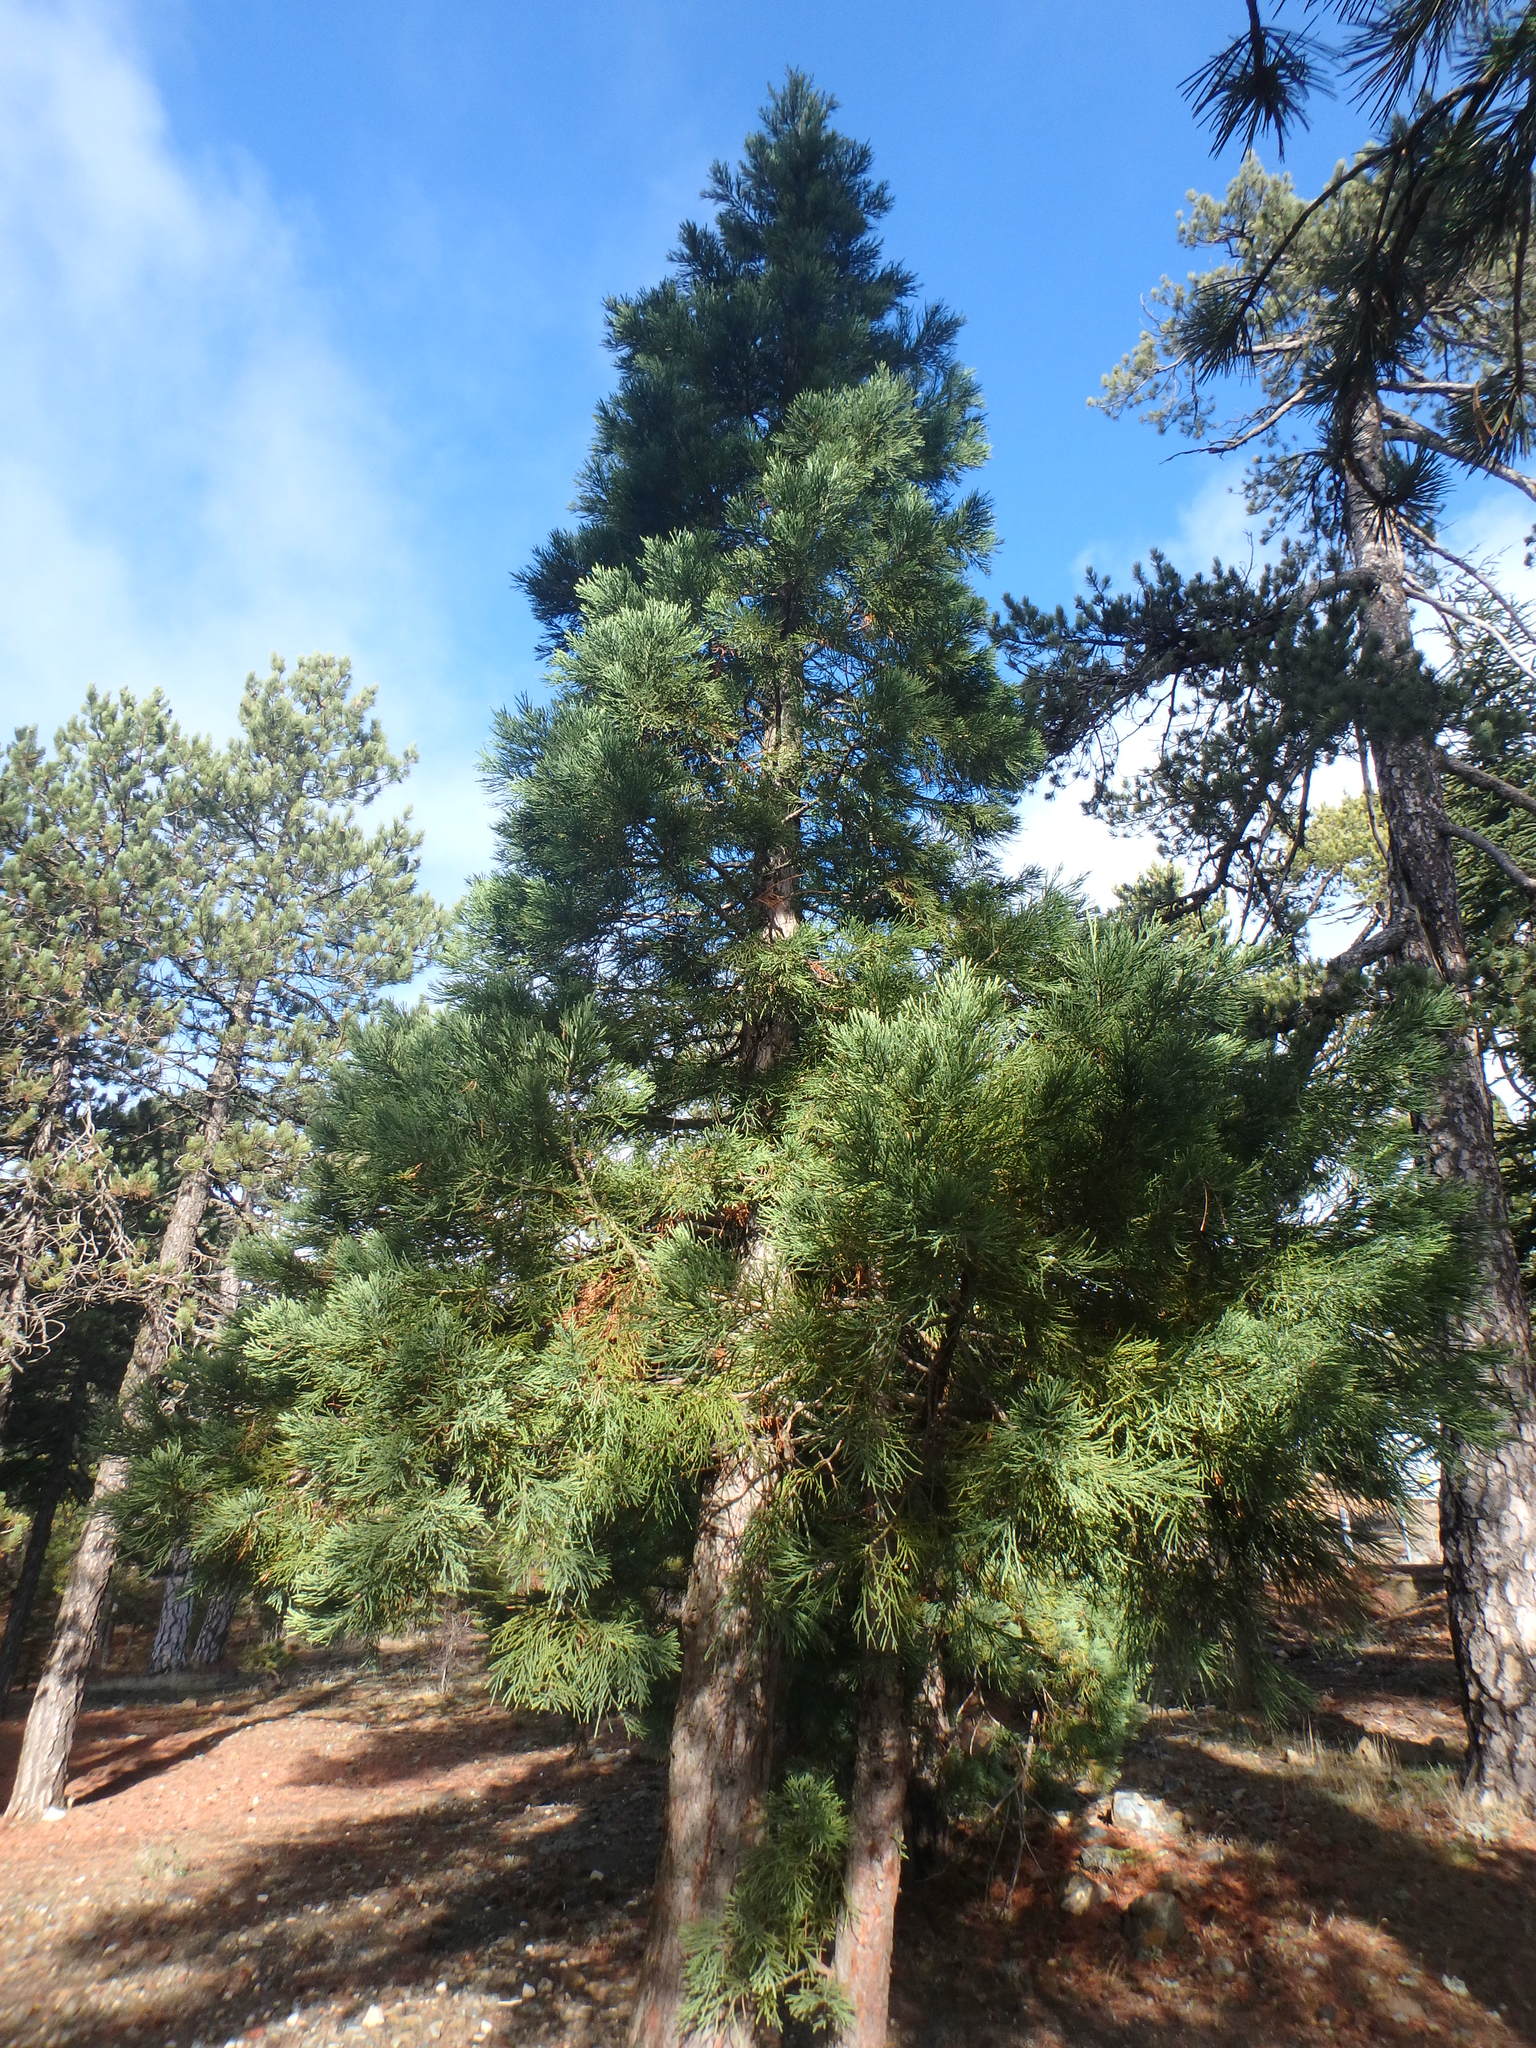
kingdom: Plantae
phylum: Tracheophyta
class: Pinopsida
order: Pinales
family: Cupressaceae
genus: Juniperus
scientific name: Juniperus foetidissima
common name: Stinking juniper
